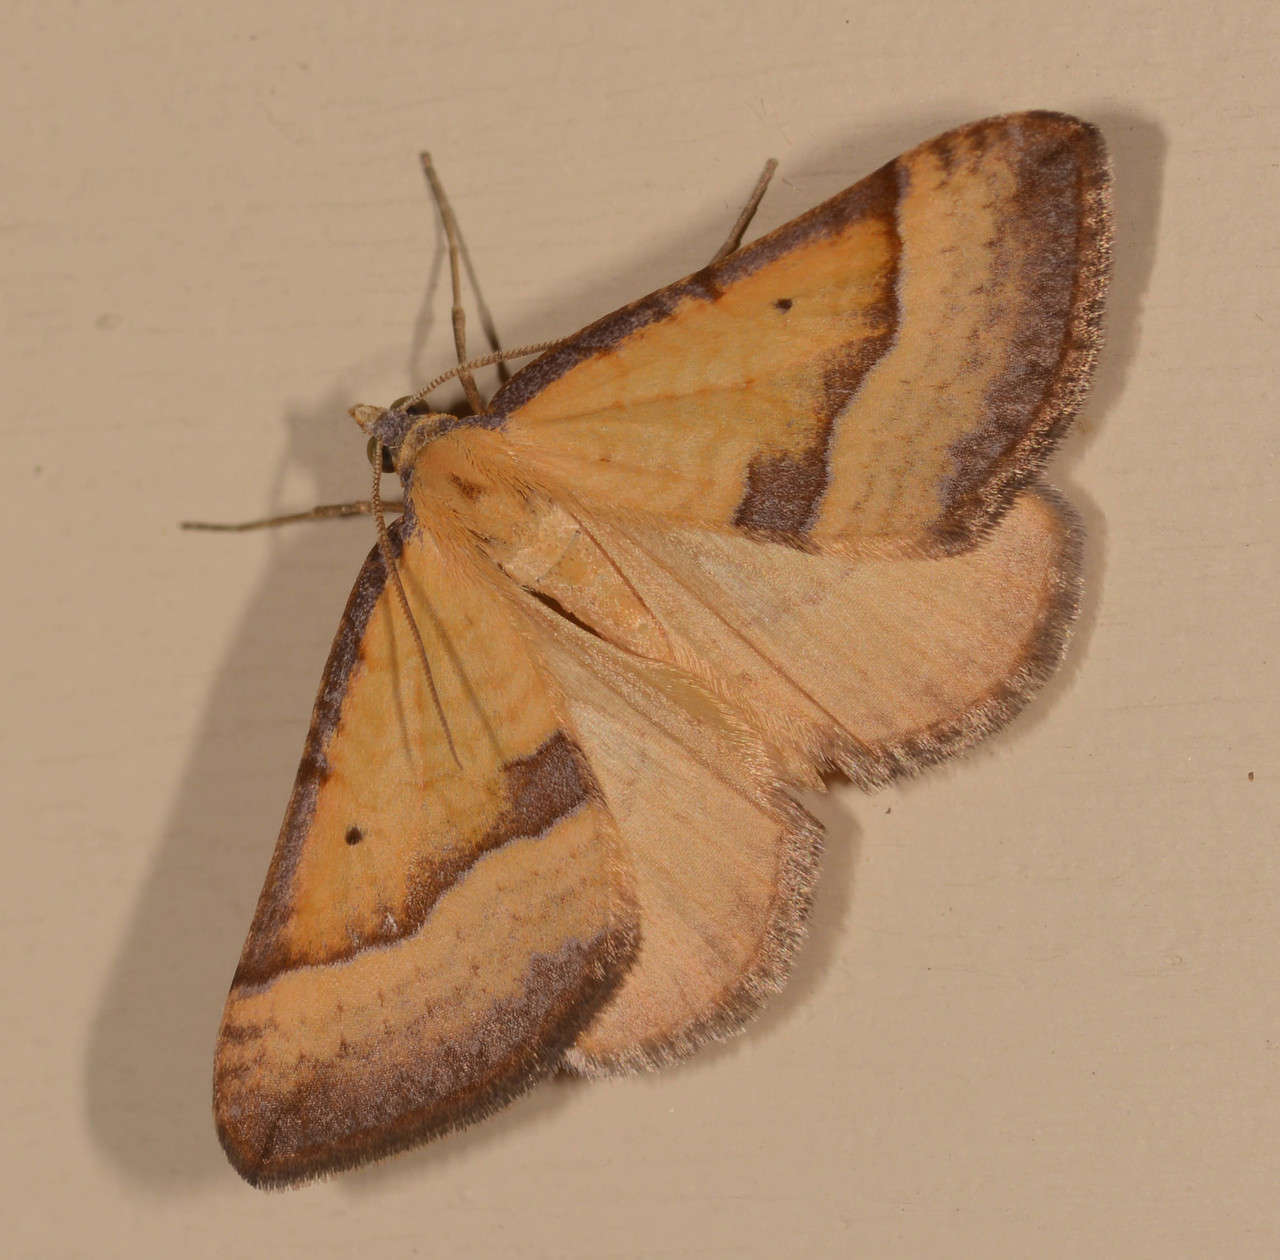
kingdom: Animalia
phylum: Arthropoda
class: Insecta
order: Lepidoptera
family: Geometridae
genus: Anachloris
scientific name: Anachloris subochraria
